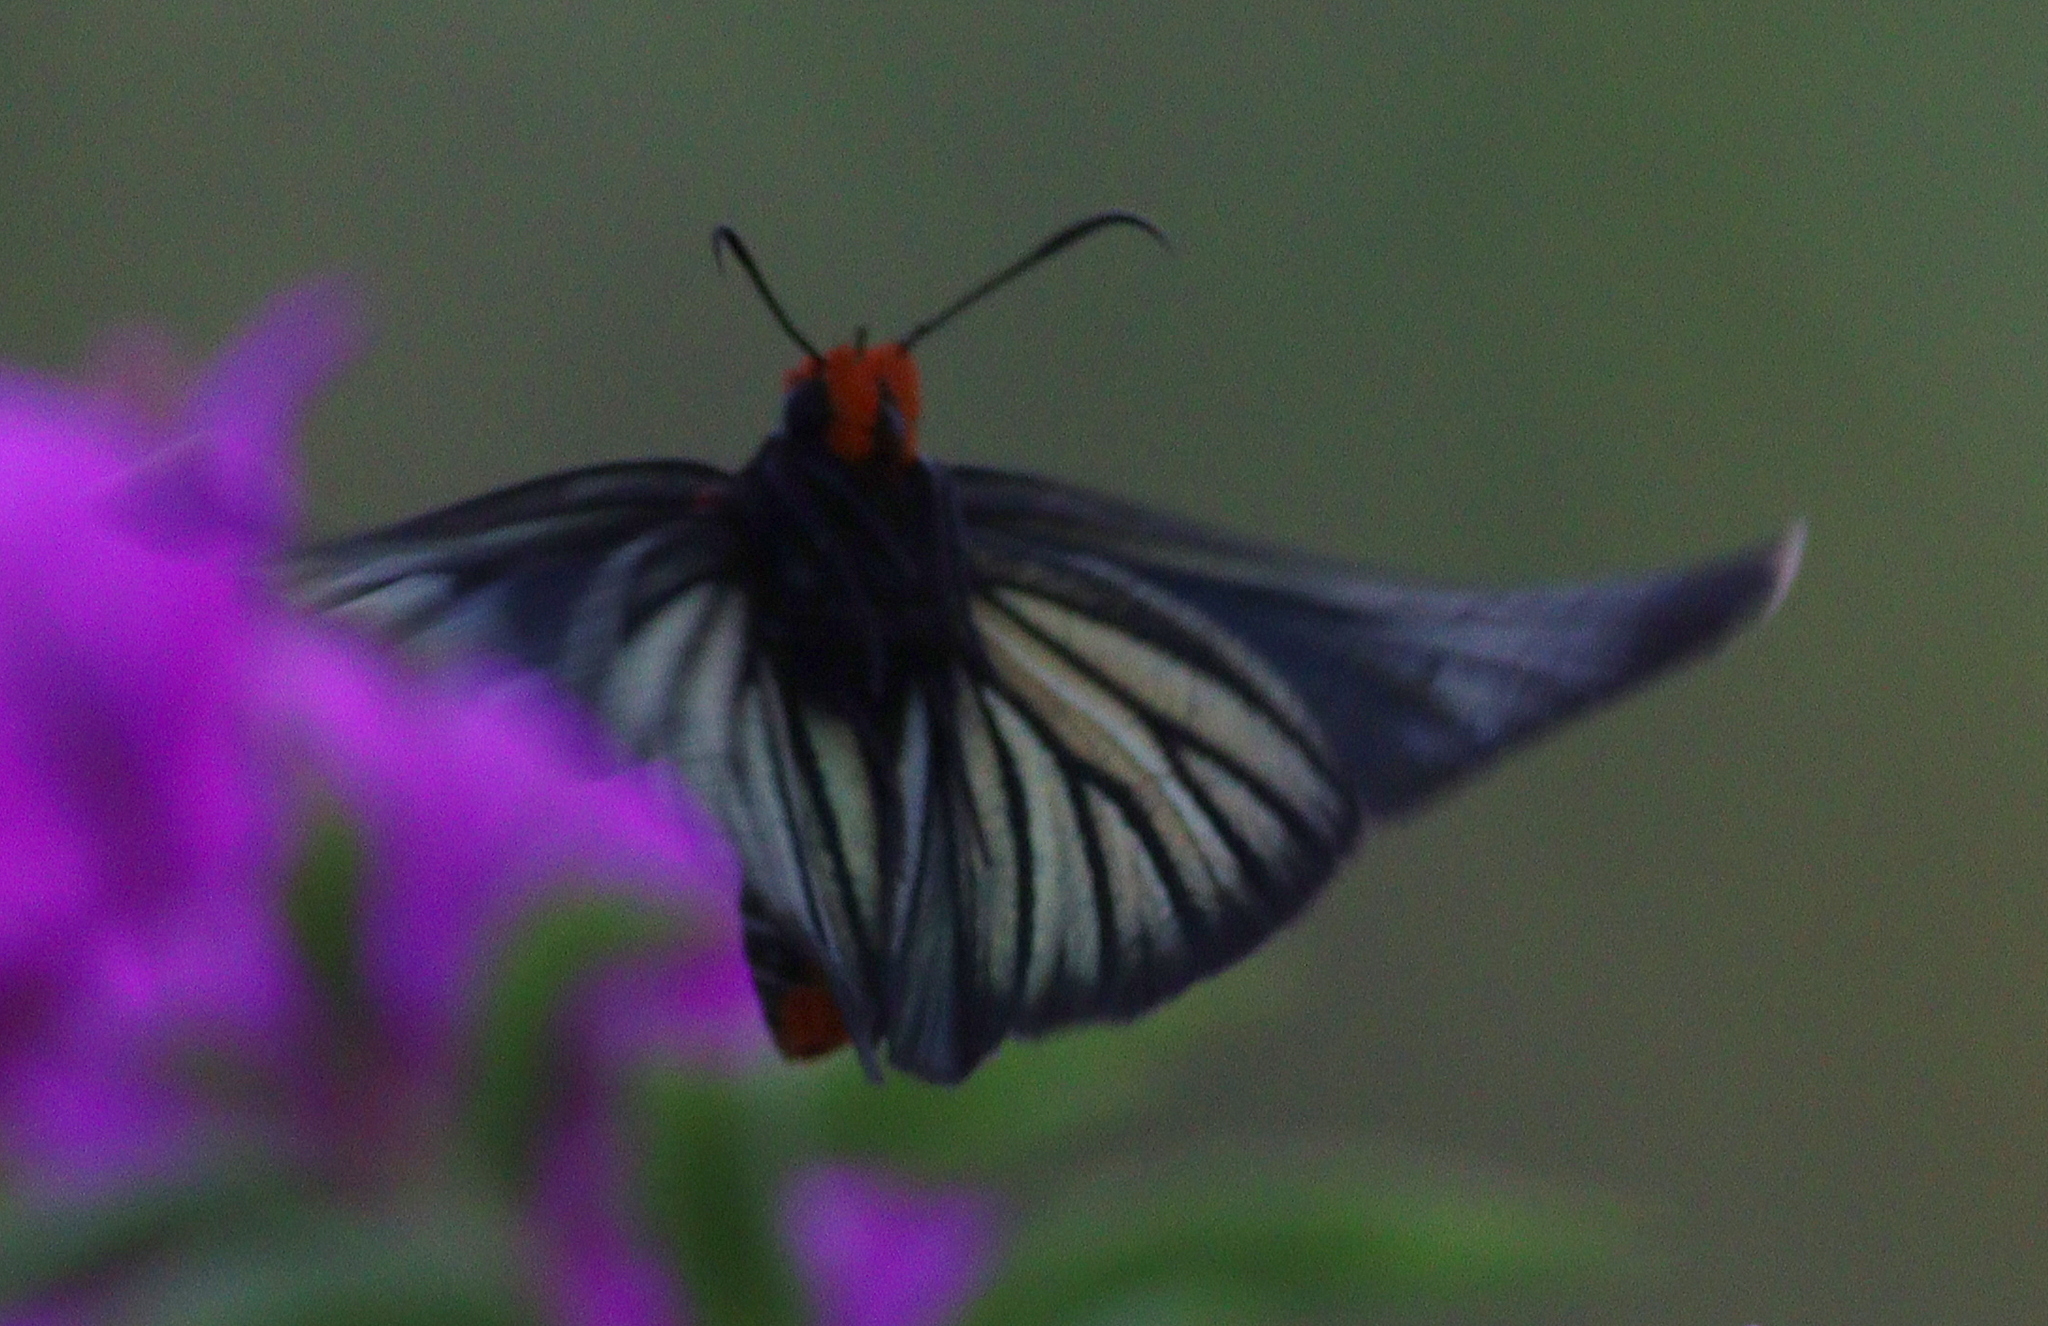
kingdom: Animalia
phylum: Arthropoda
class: Insecta
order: Lepidoptera
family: Hesperiidae
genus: Pyrrhochalcia
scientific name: Pyrrhochalcia iphis
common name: African giant skipper
